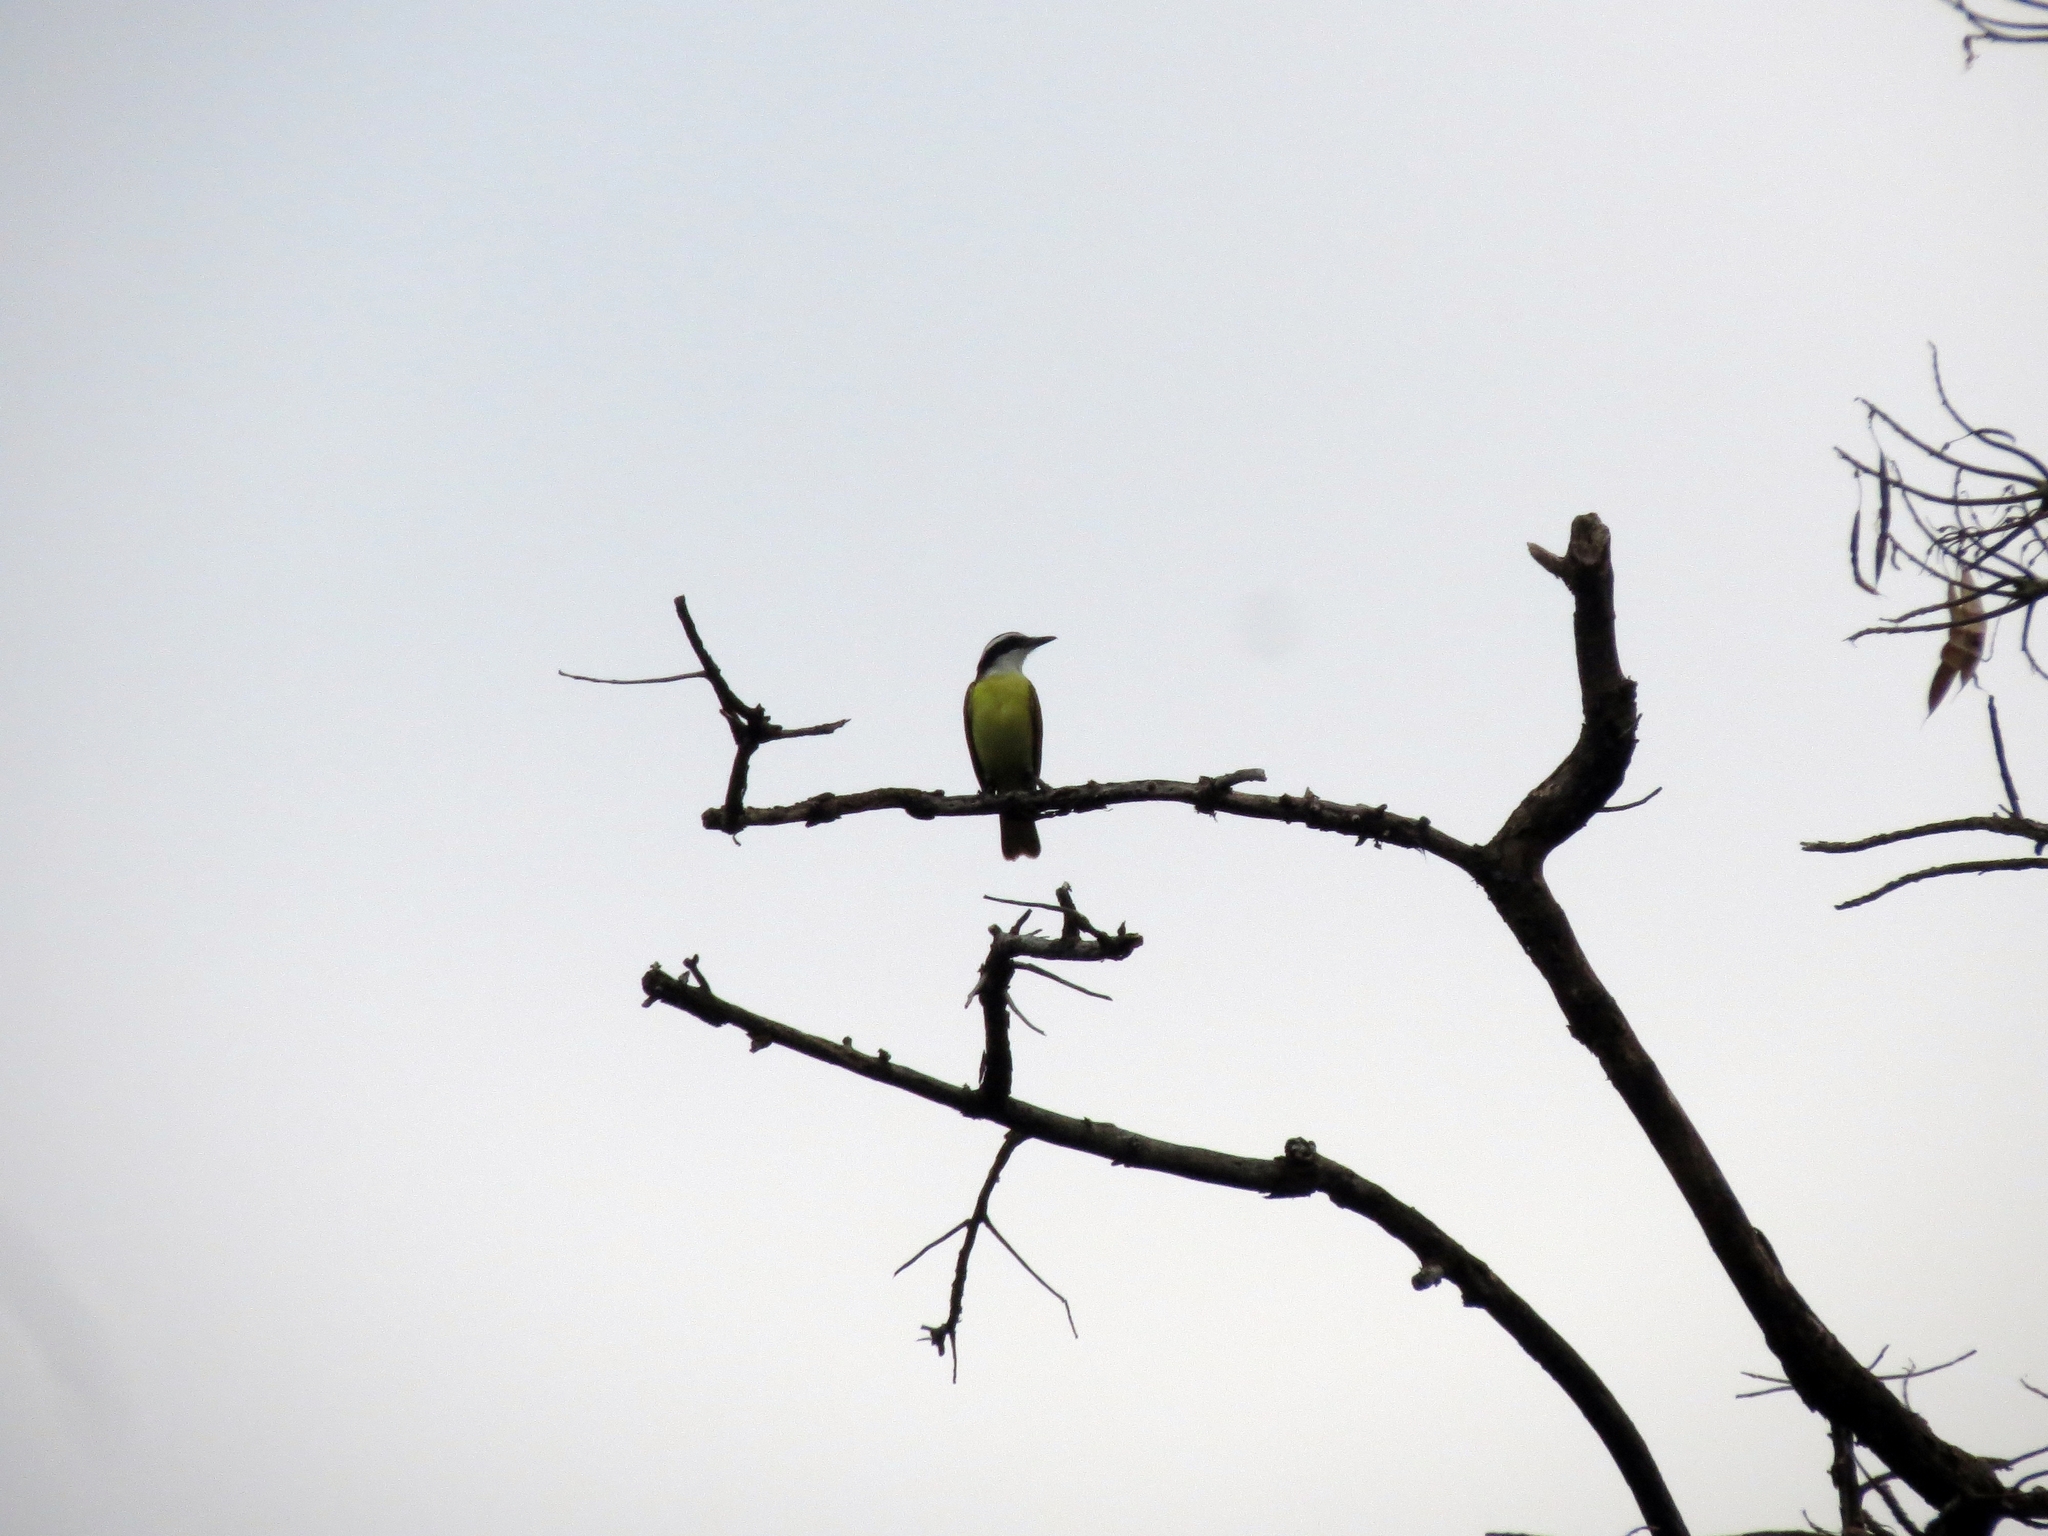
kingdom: Animalia
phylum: Chordata
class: Aves
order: Passeriformes
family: Tyrannidae
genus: Pitangus
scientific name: Pitangus sulphuratus
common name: Great kiskadee
